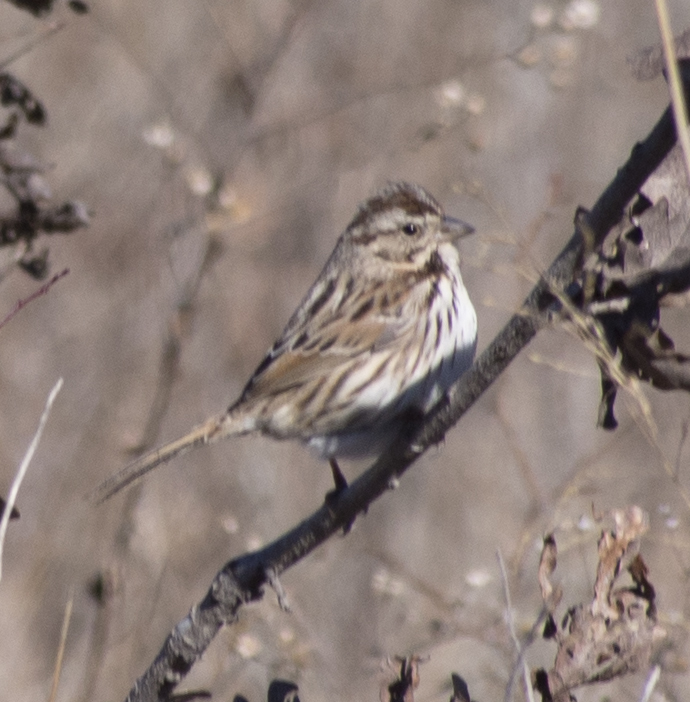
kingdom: Animalia
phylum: Chordata
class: Aves
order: Passeriformes
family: Passerellidae
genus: Melospiza
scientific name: Melospiza melodia
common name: Song sparrow
